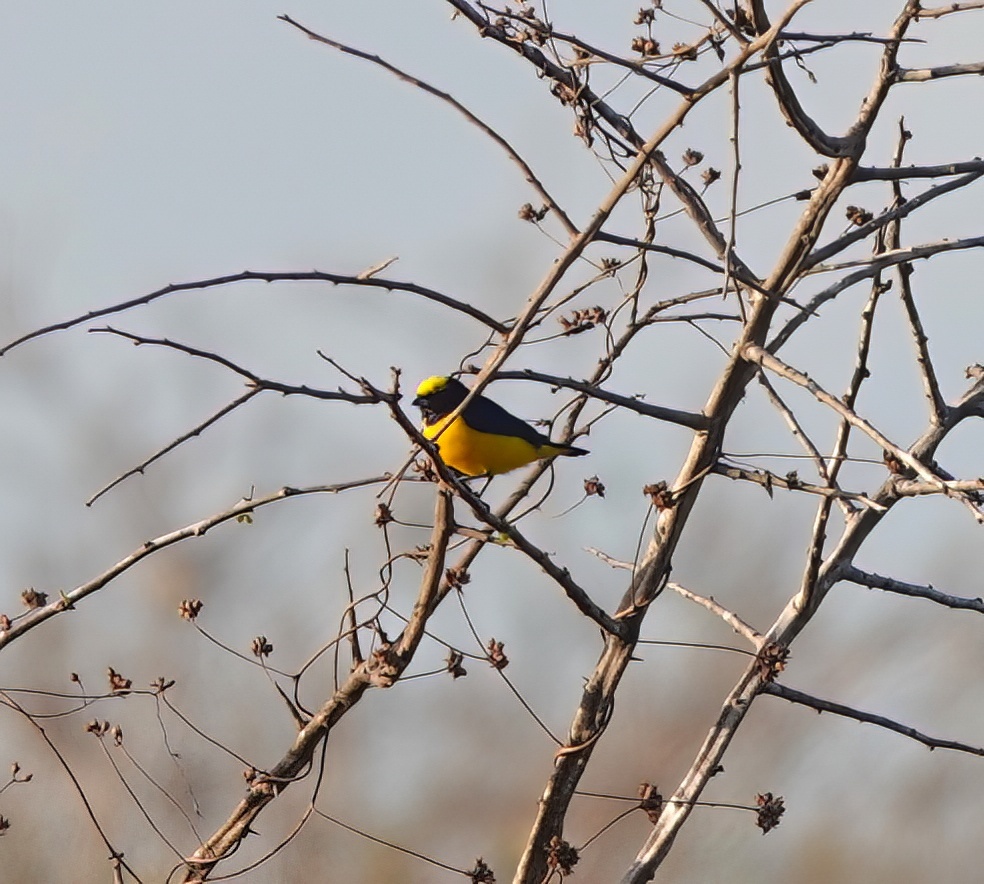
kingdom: Animalia
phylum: Chordata
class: Aves
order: Passeriformes
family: Fringillidae
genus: Euphonia
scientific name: Euphonia trinitatis
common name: Trinidad euphonia
